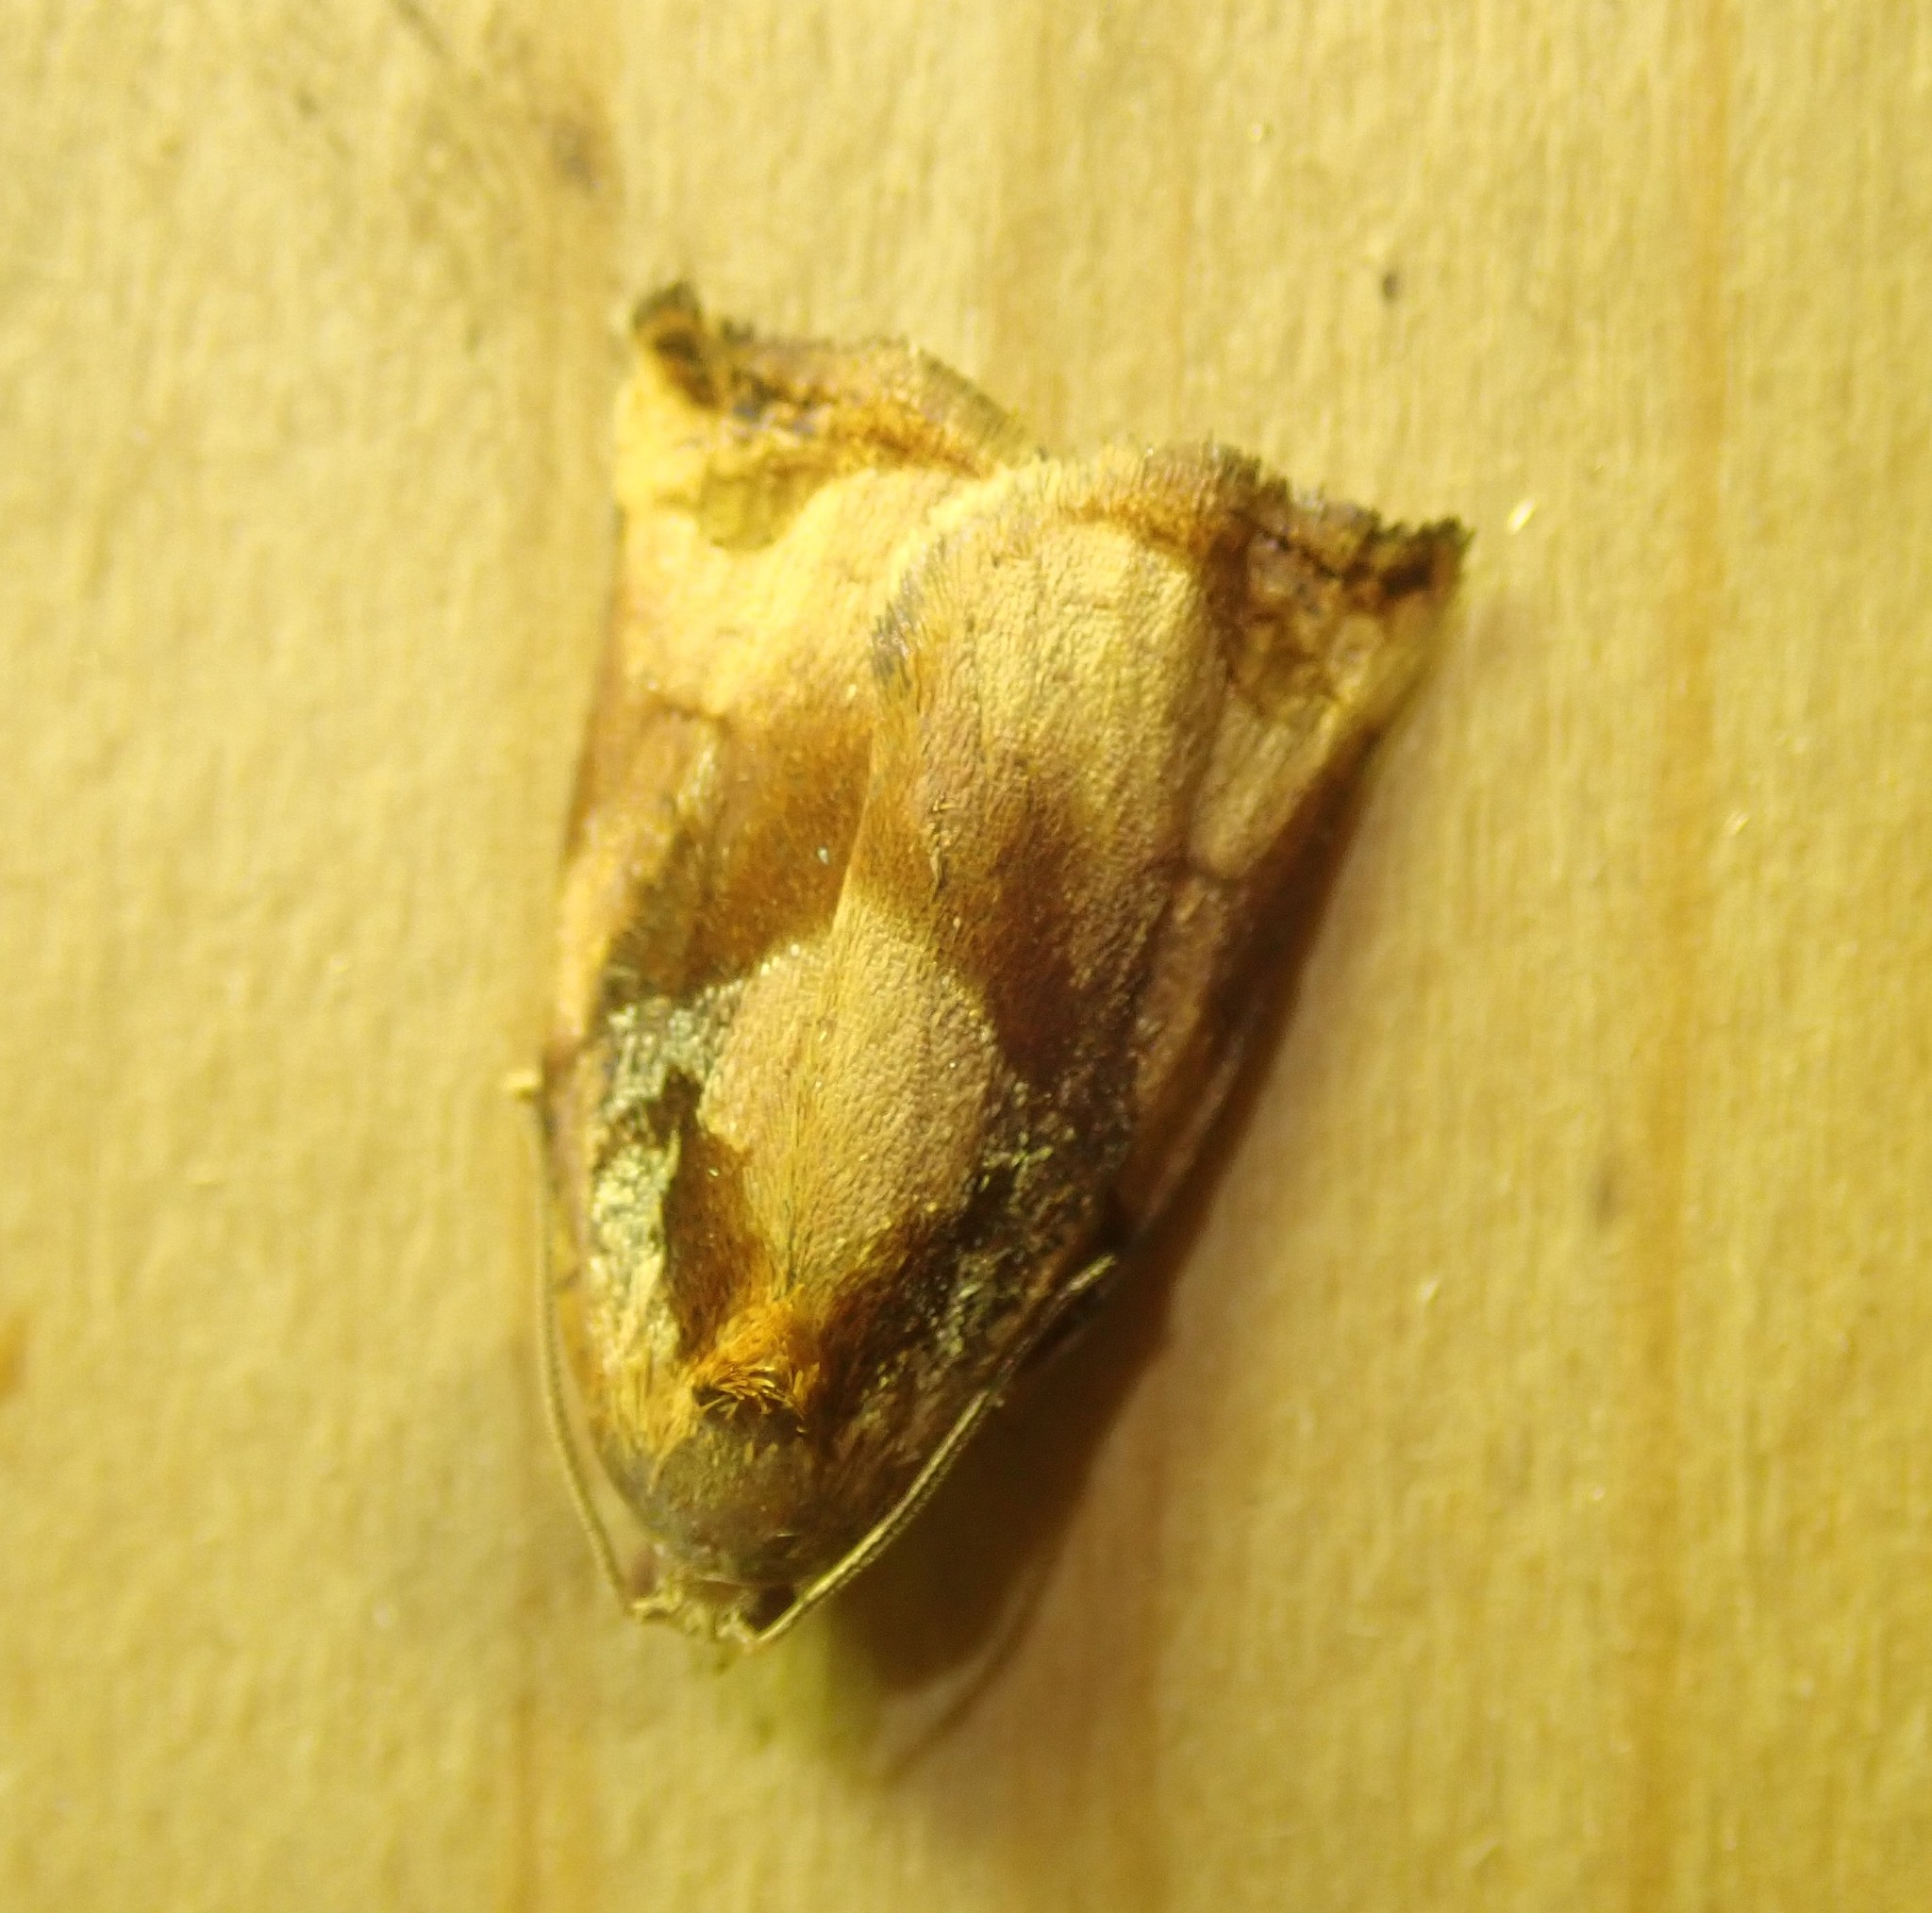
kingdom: Animalia
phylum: Arthropoda
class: Insecta
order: Lepidoptera
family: Tortricidae
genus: Archips
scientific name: Archips podana
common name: Large fruit-tree tortrix
